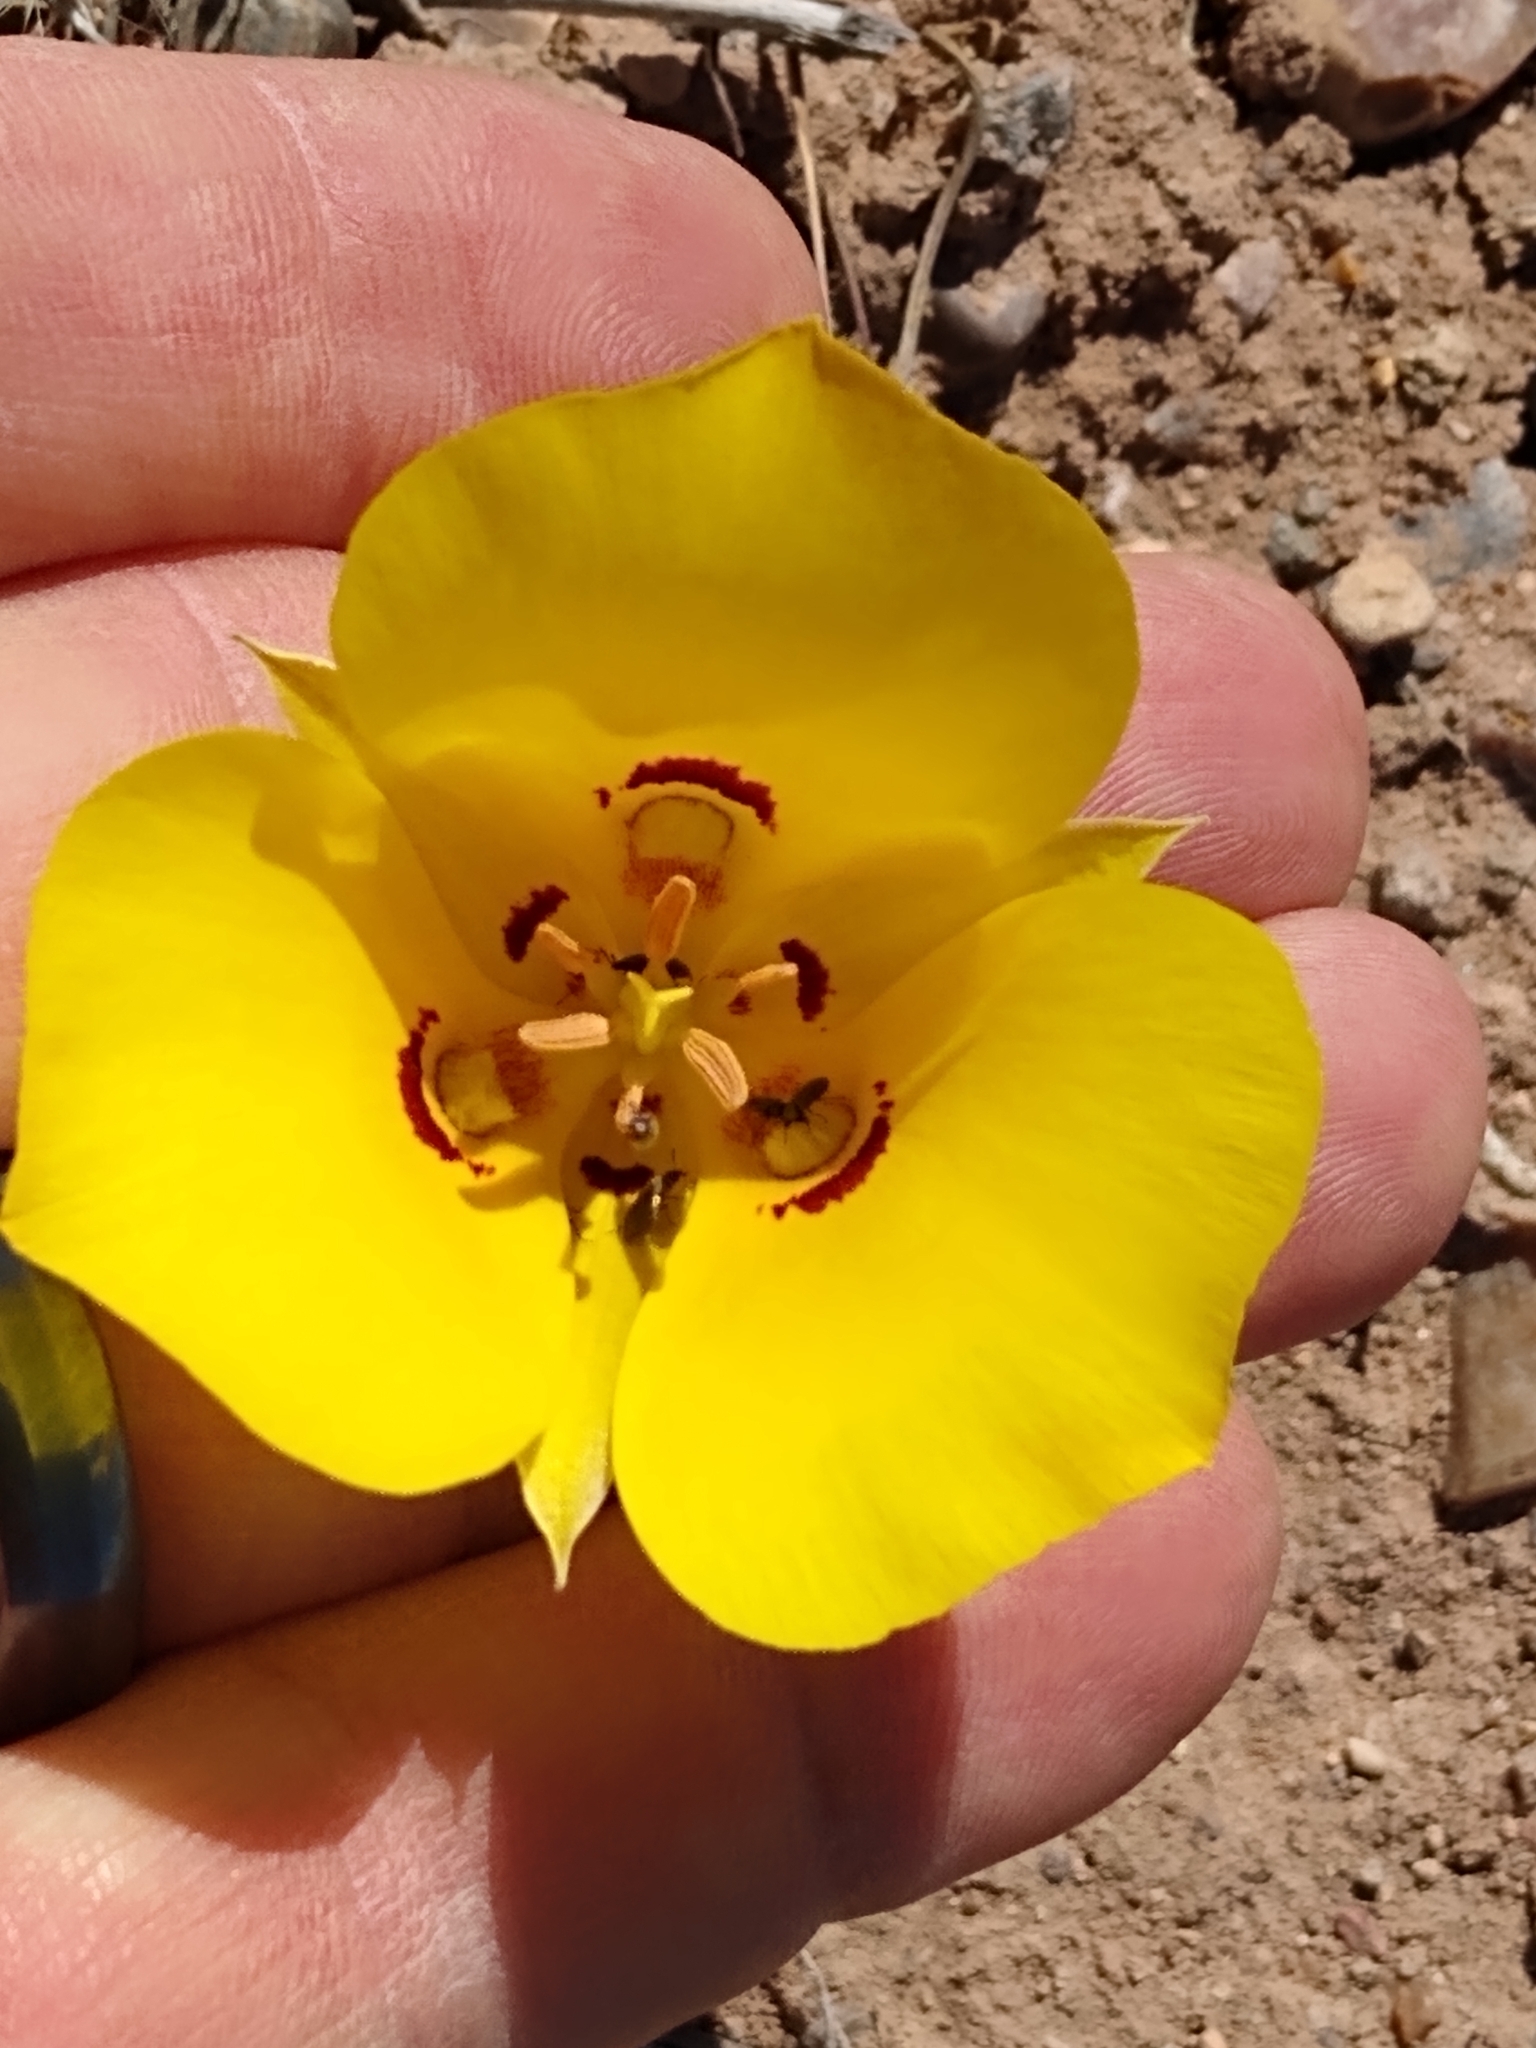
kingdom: Plantae
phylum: Tracheophyta
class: Liliopsida
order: Liliales
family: Liliaceae
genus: Calochortus
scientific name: Calochortus aureus
